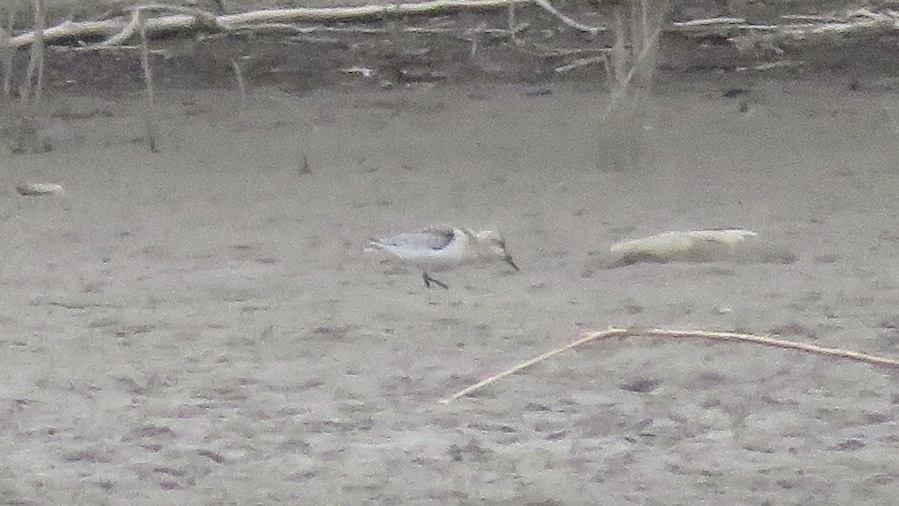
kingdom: Animalia
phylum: Chordata
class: Aves
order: Charadriiformes
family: Scolopacidae
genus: Calidris
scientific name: Calidris alba
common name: Sanderling
